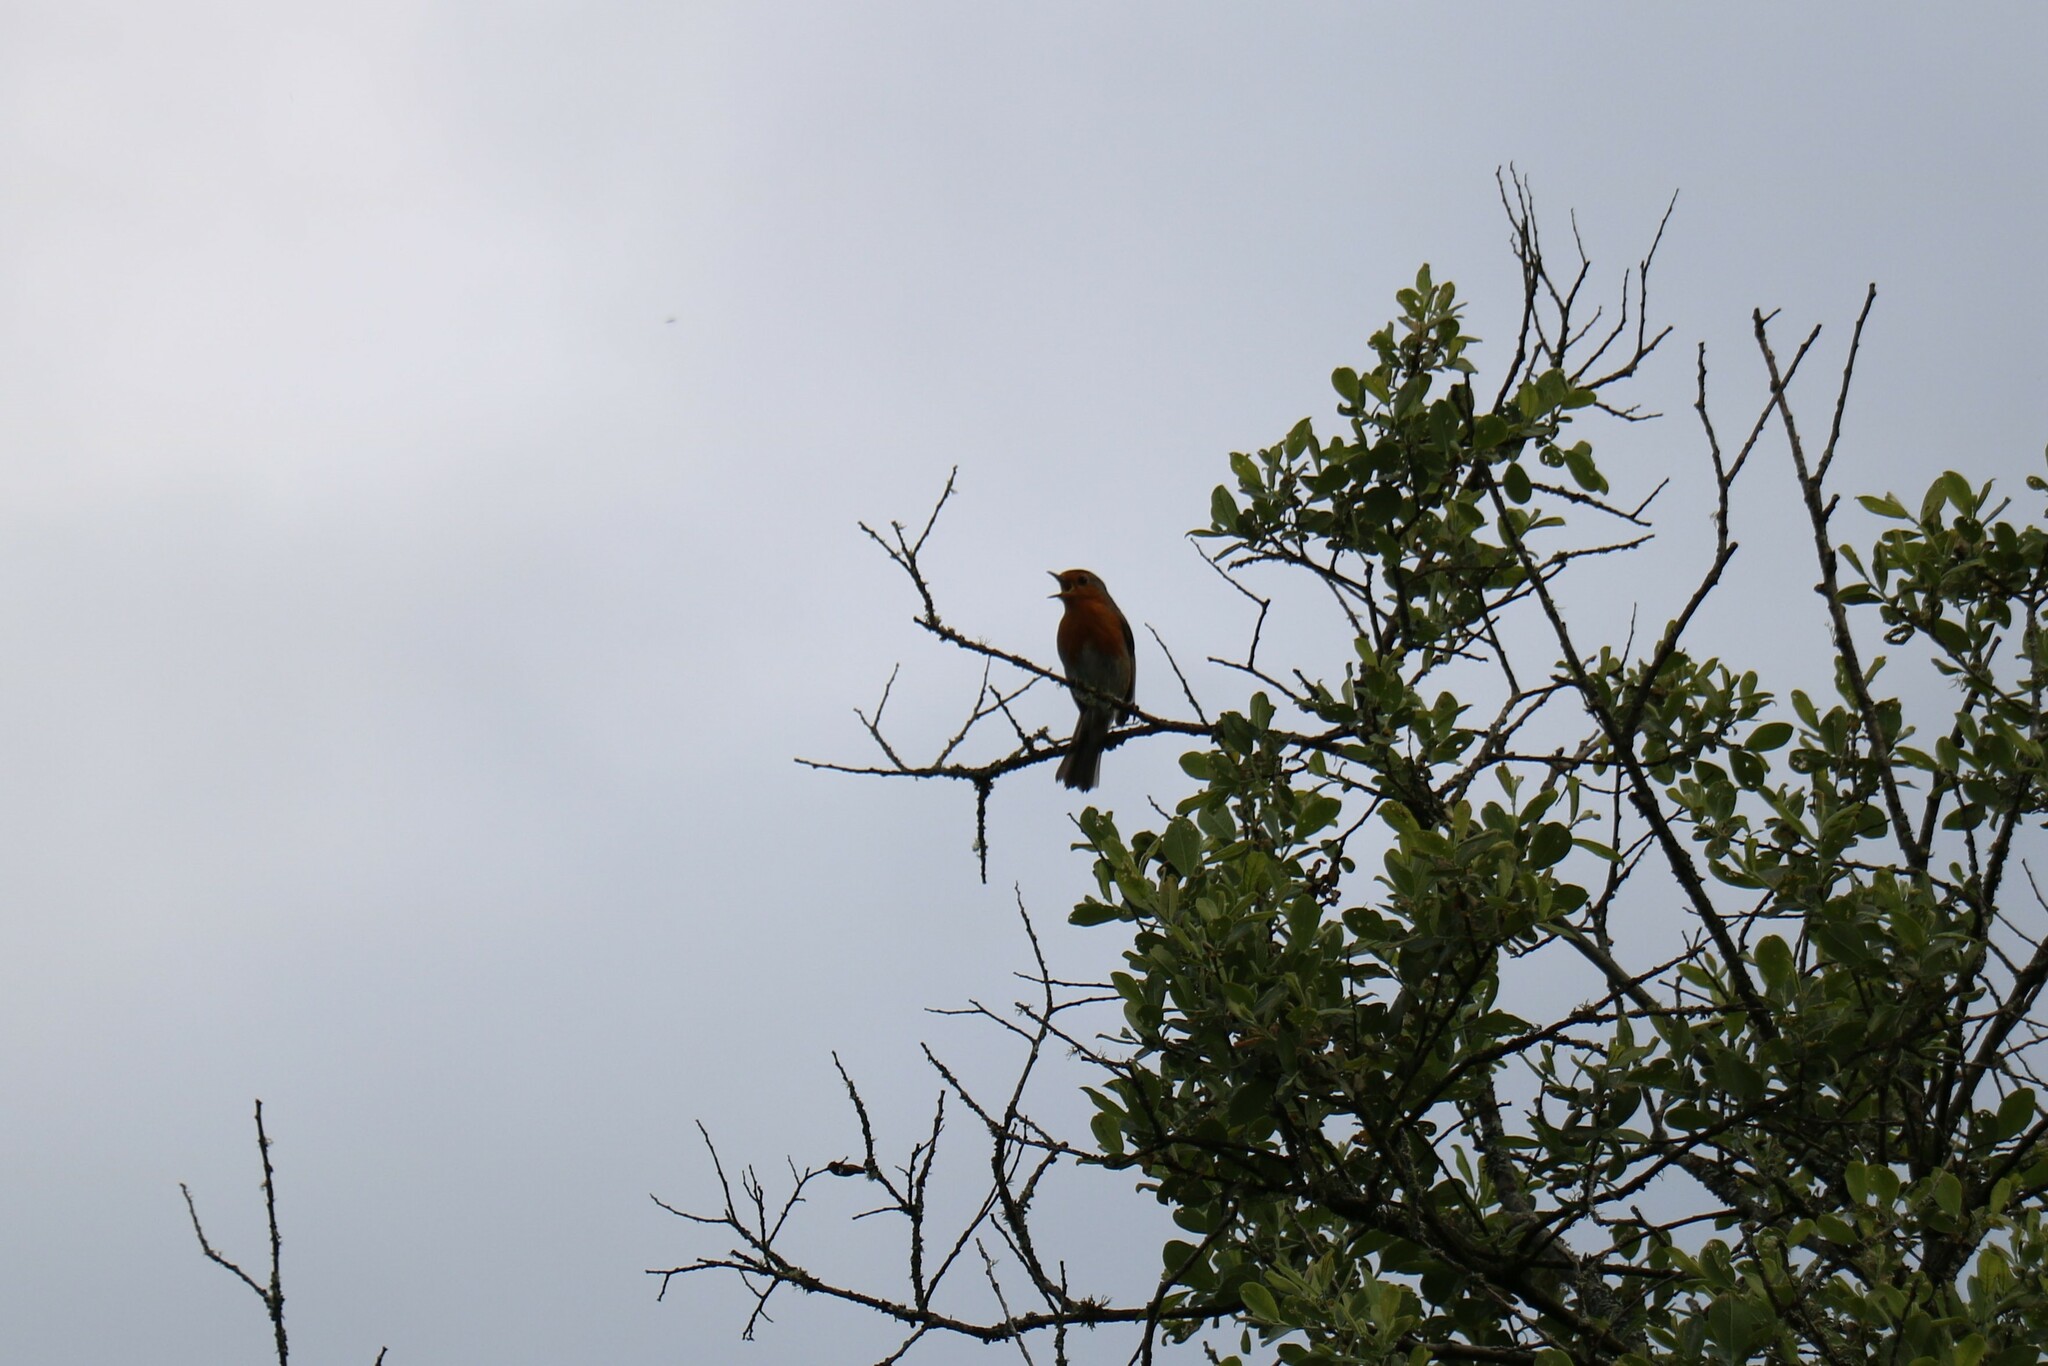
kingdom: Animalia
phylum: Chordata
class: Aves
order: Passeriformes
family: Muscicapidae
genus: Erithacus
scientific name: Erithacus rubecula
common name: European robin
